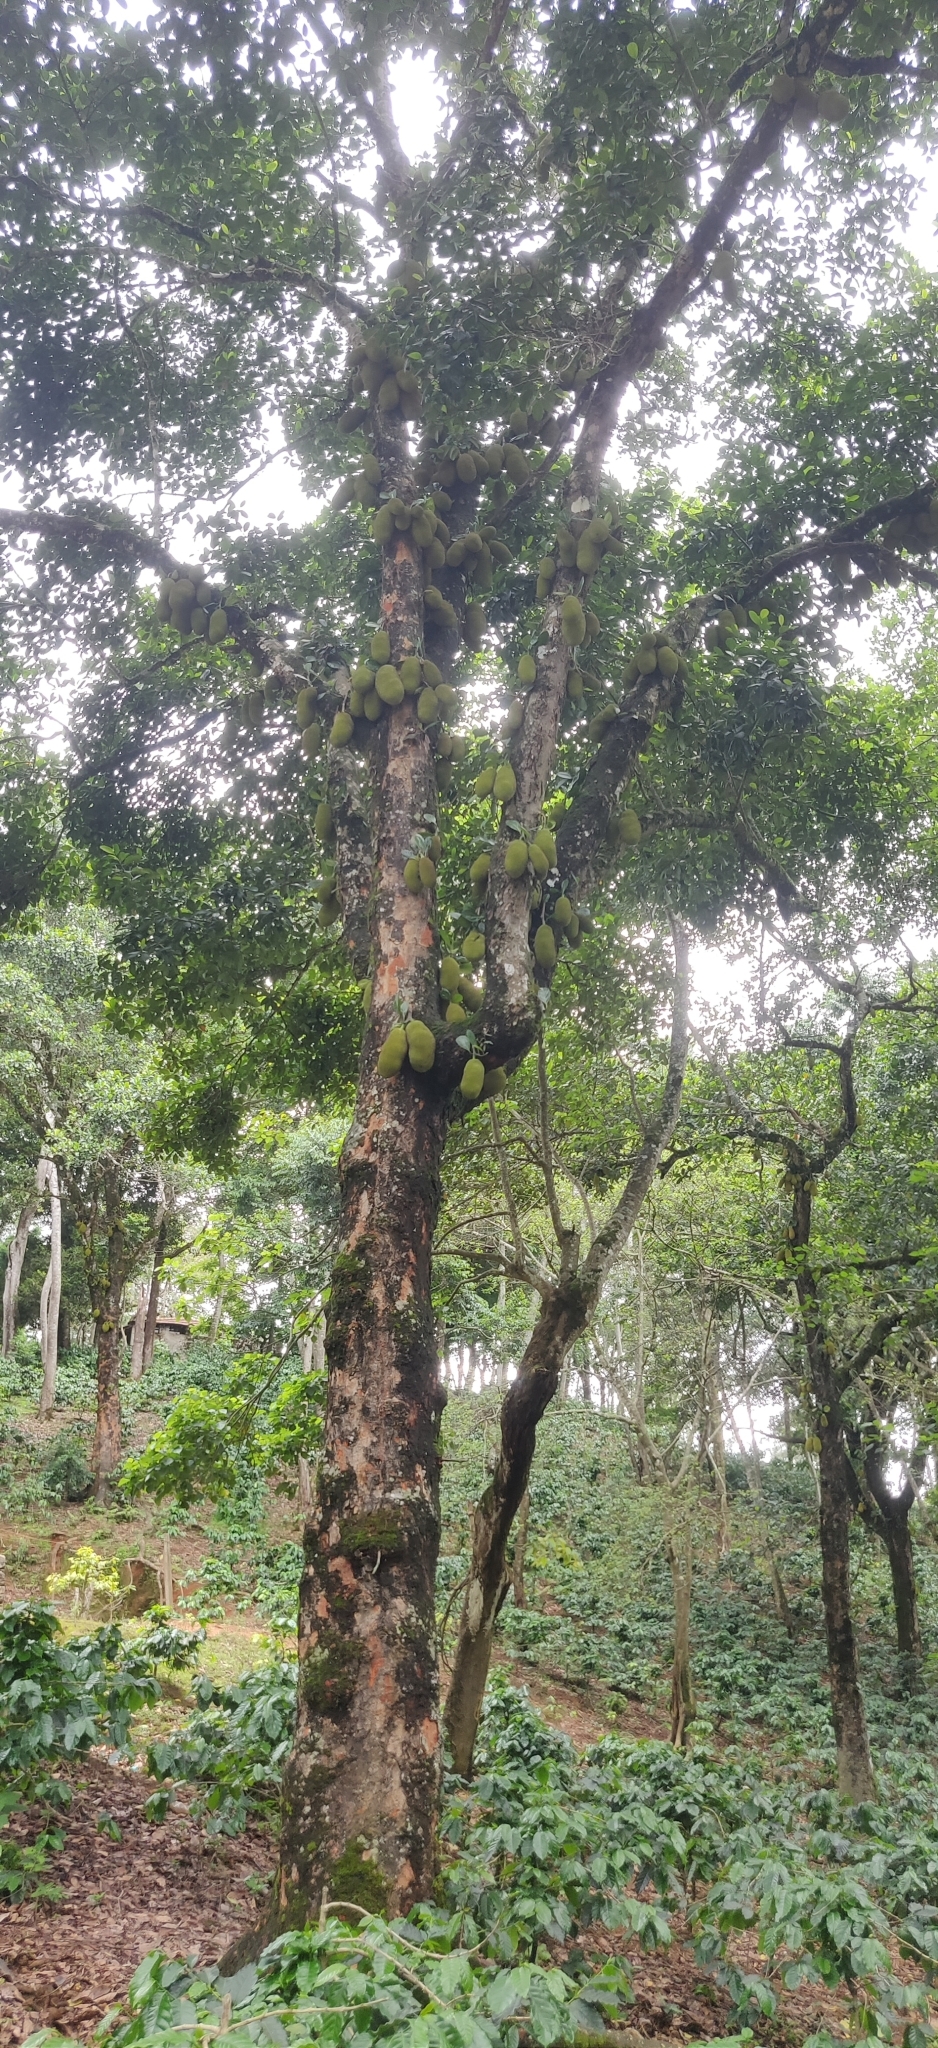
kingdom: Plantae
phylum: Tracheophyta
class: Magnoliopsida
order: Rosales
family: Moraceae
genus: Artocarpus
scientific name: Artocarpus heterophyllus
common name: Jackfruit
